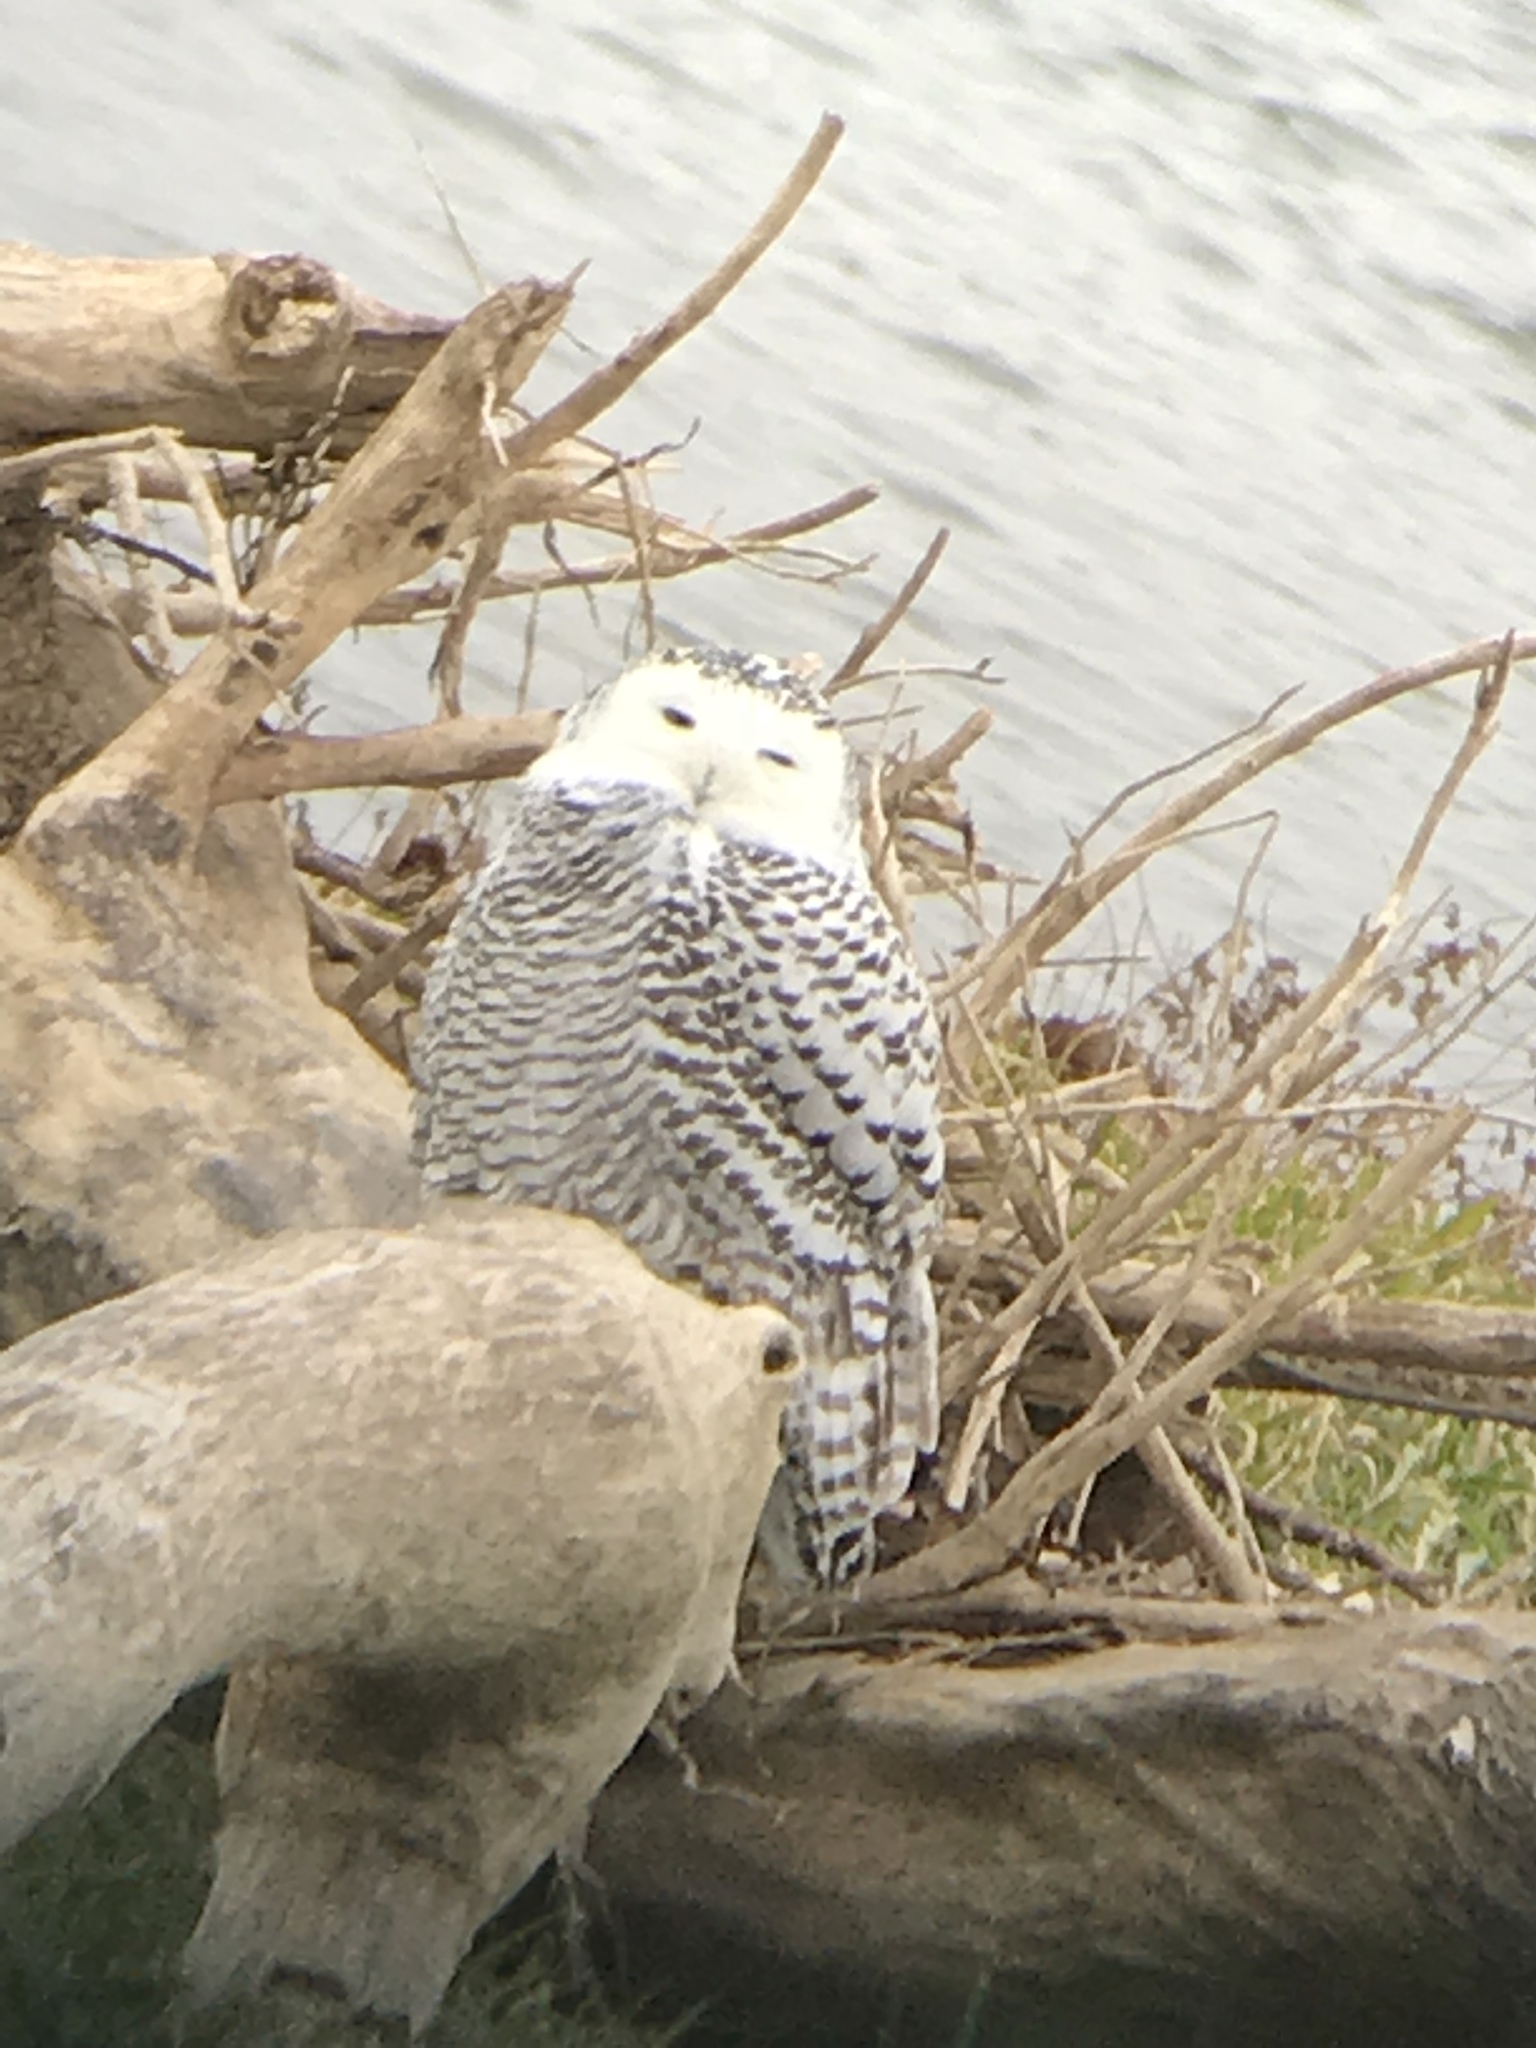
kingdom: Animalia
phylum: Chordata
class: Aves
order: Strigiformes
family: Strigidae
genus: Bubo
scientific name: Bubo scandiacus
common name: Snowy owl
